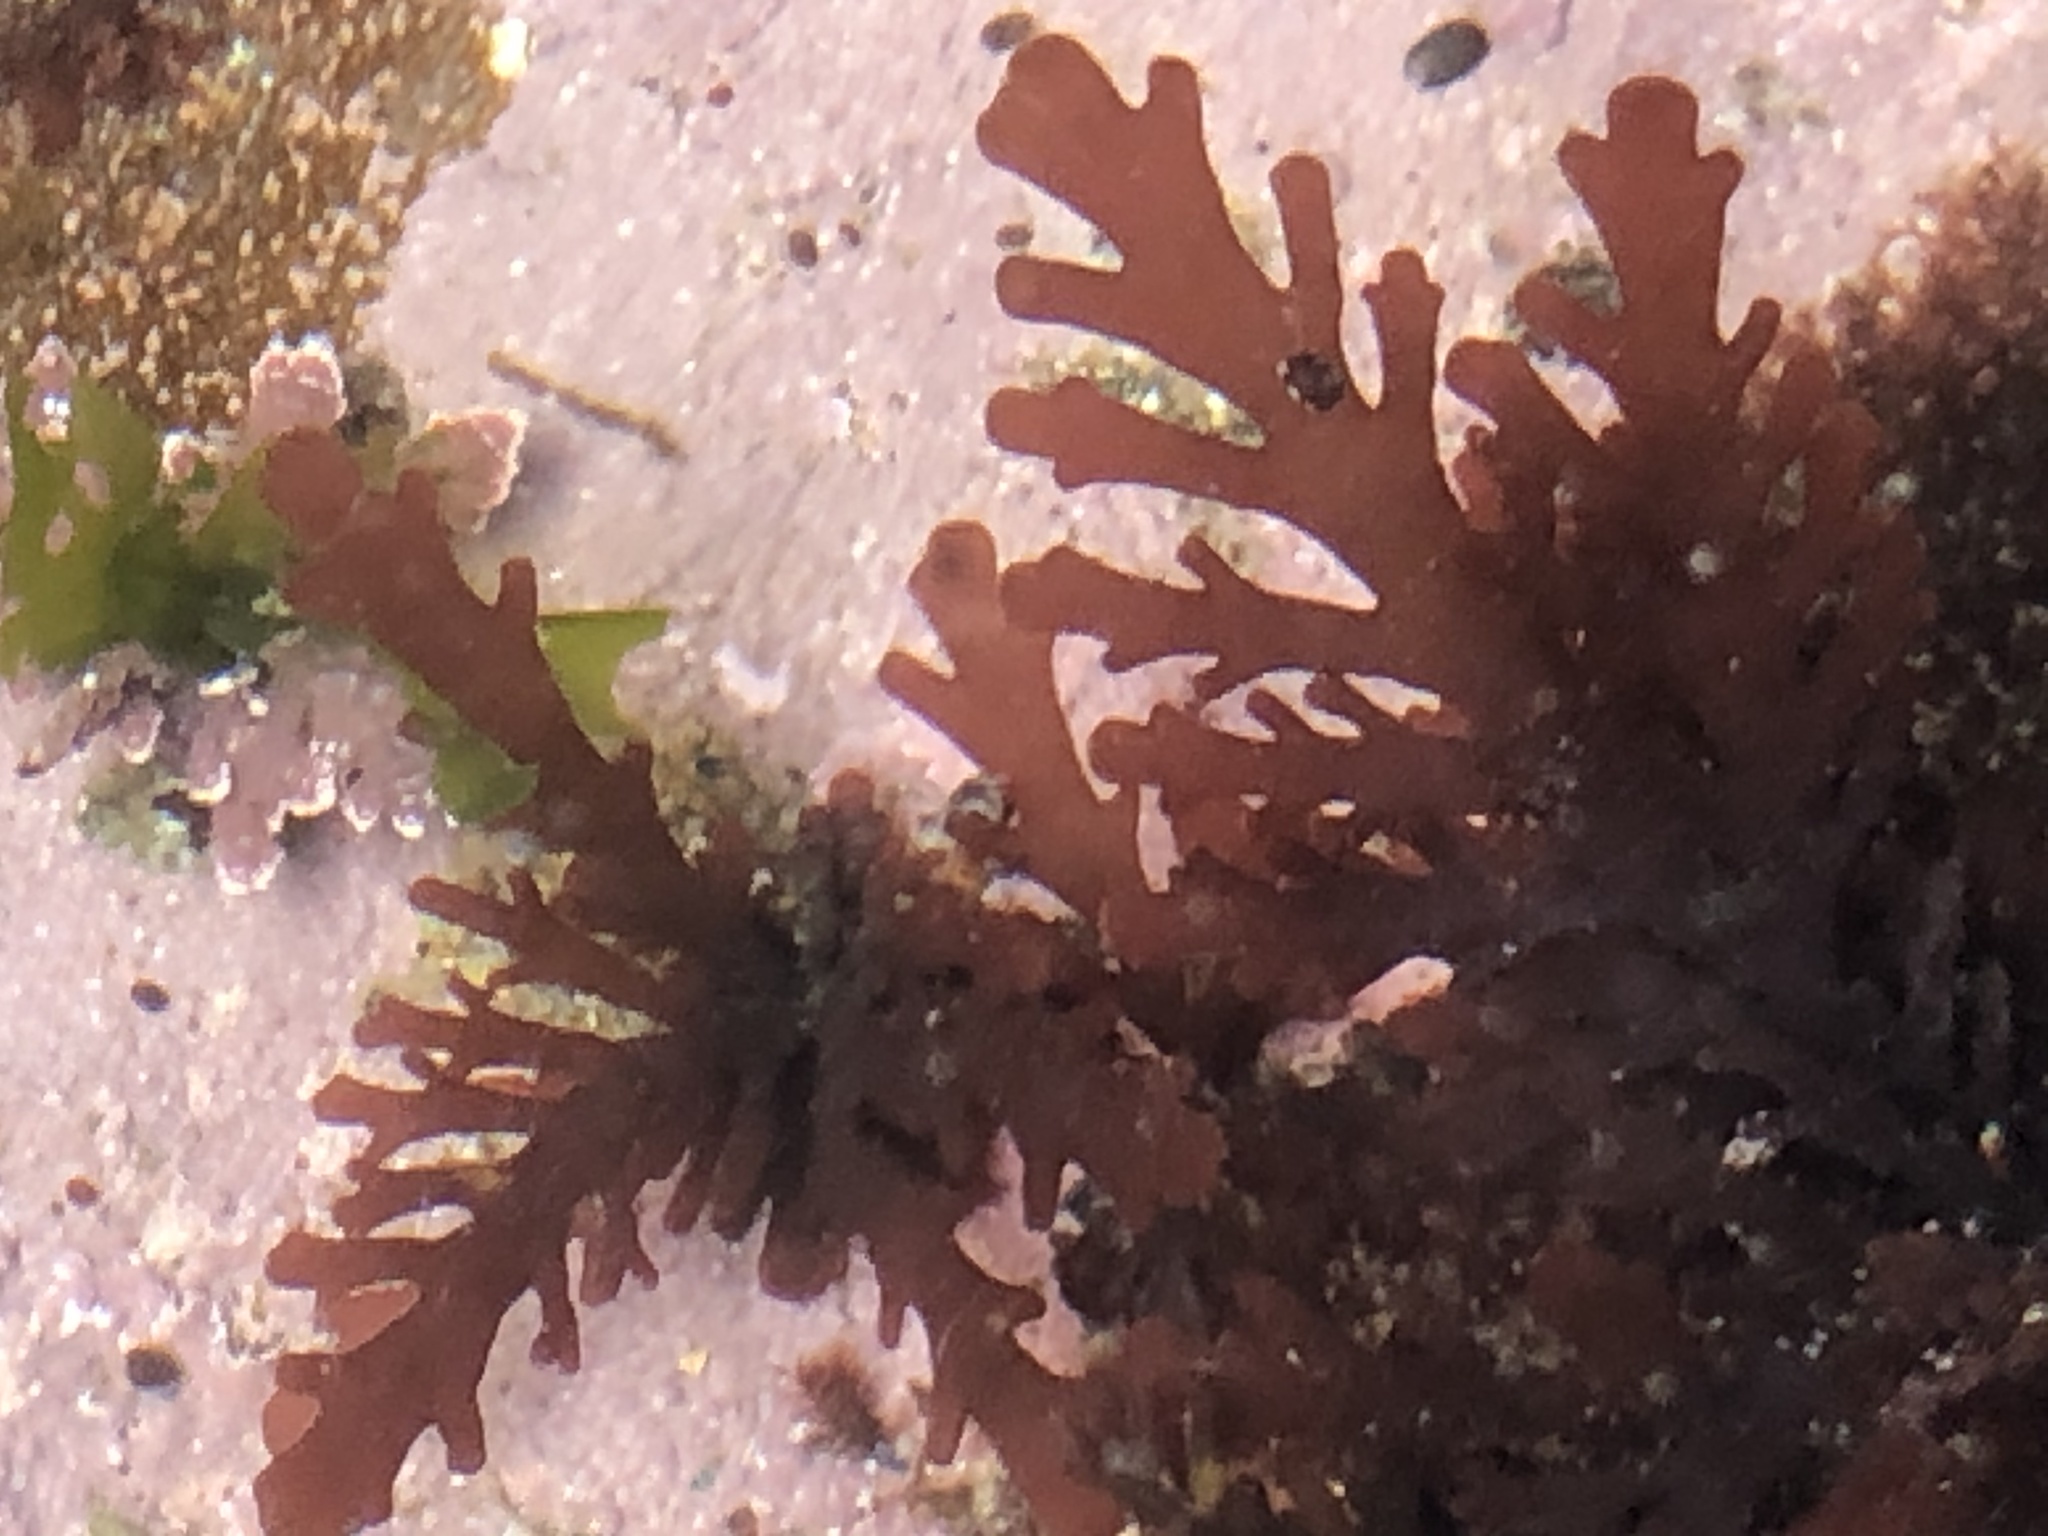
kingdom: Plantae
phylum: Rhodophyta
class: Florideophyceae
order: Ceramiales
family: Rhodomelaceae
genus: Osmundea
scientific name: Osmundea spectabilis
